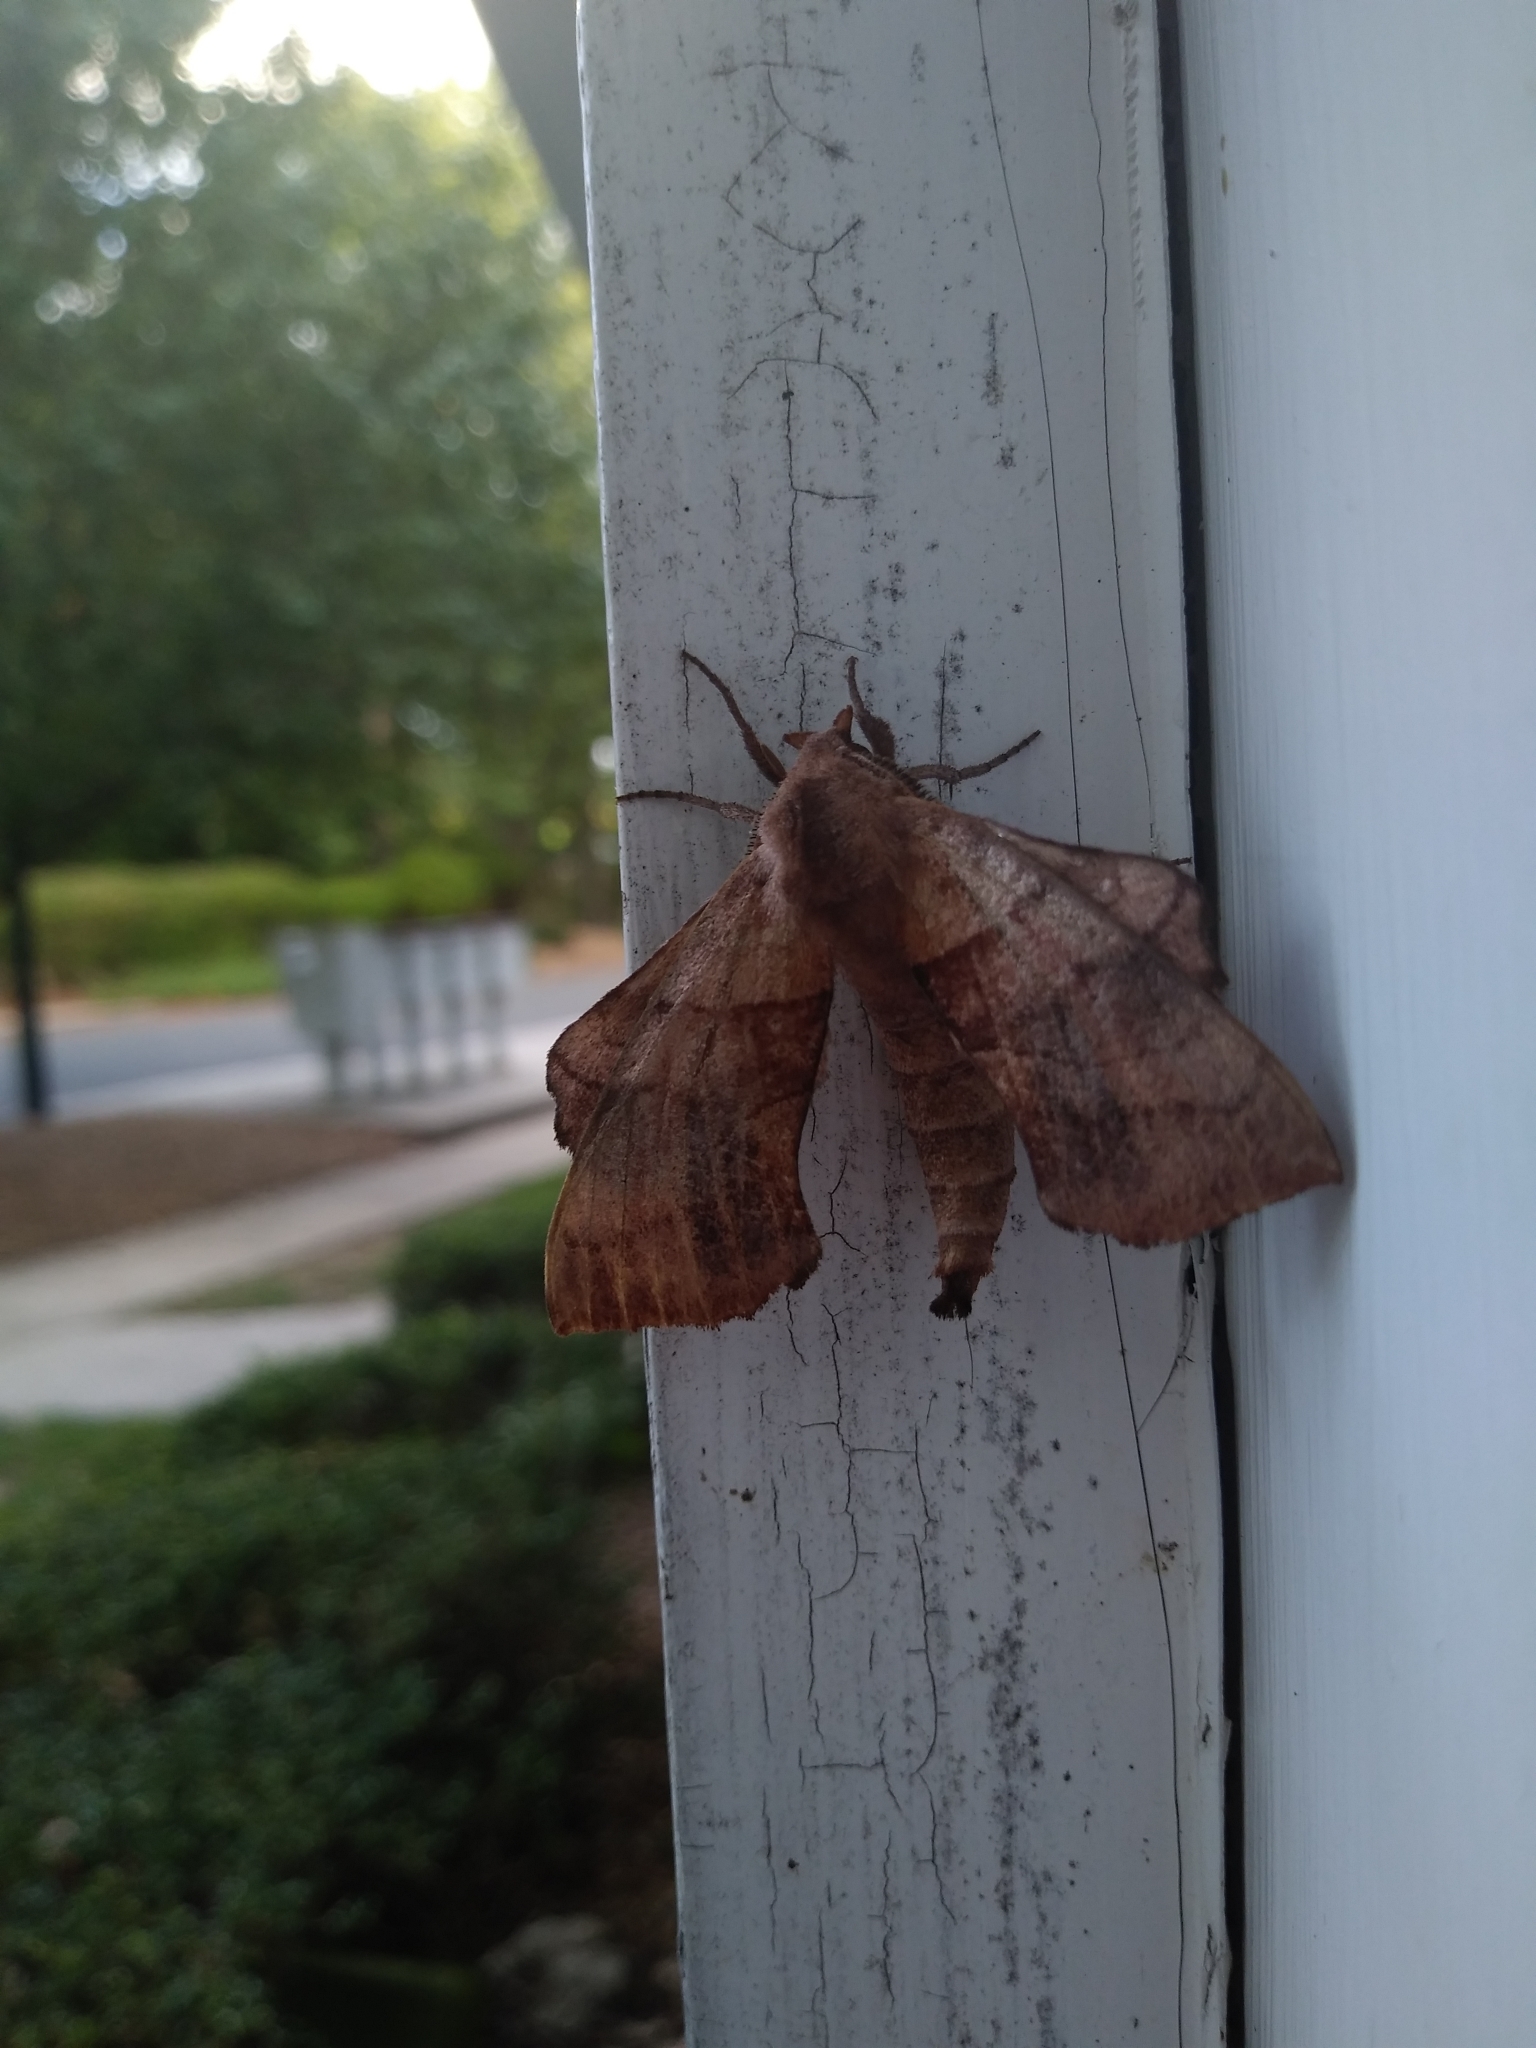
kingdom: Animalia
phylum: Arthropoda
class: Insecta
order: Lepidoptera
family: Sphingidae
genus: Amorpha
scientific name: Amorpha juglandis
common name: Walnut sphinx
